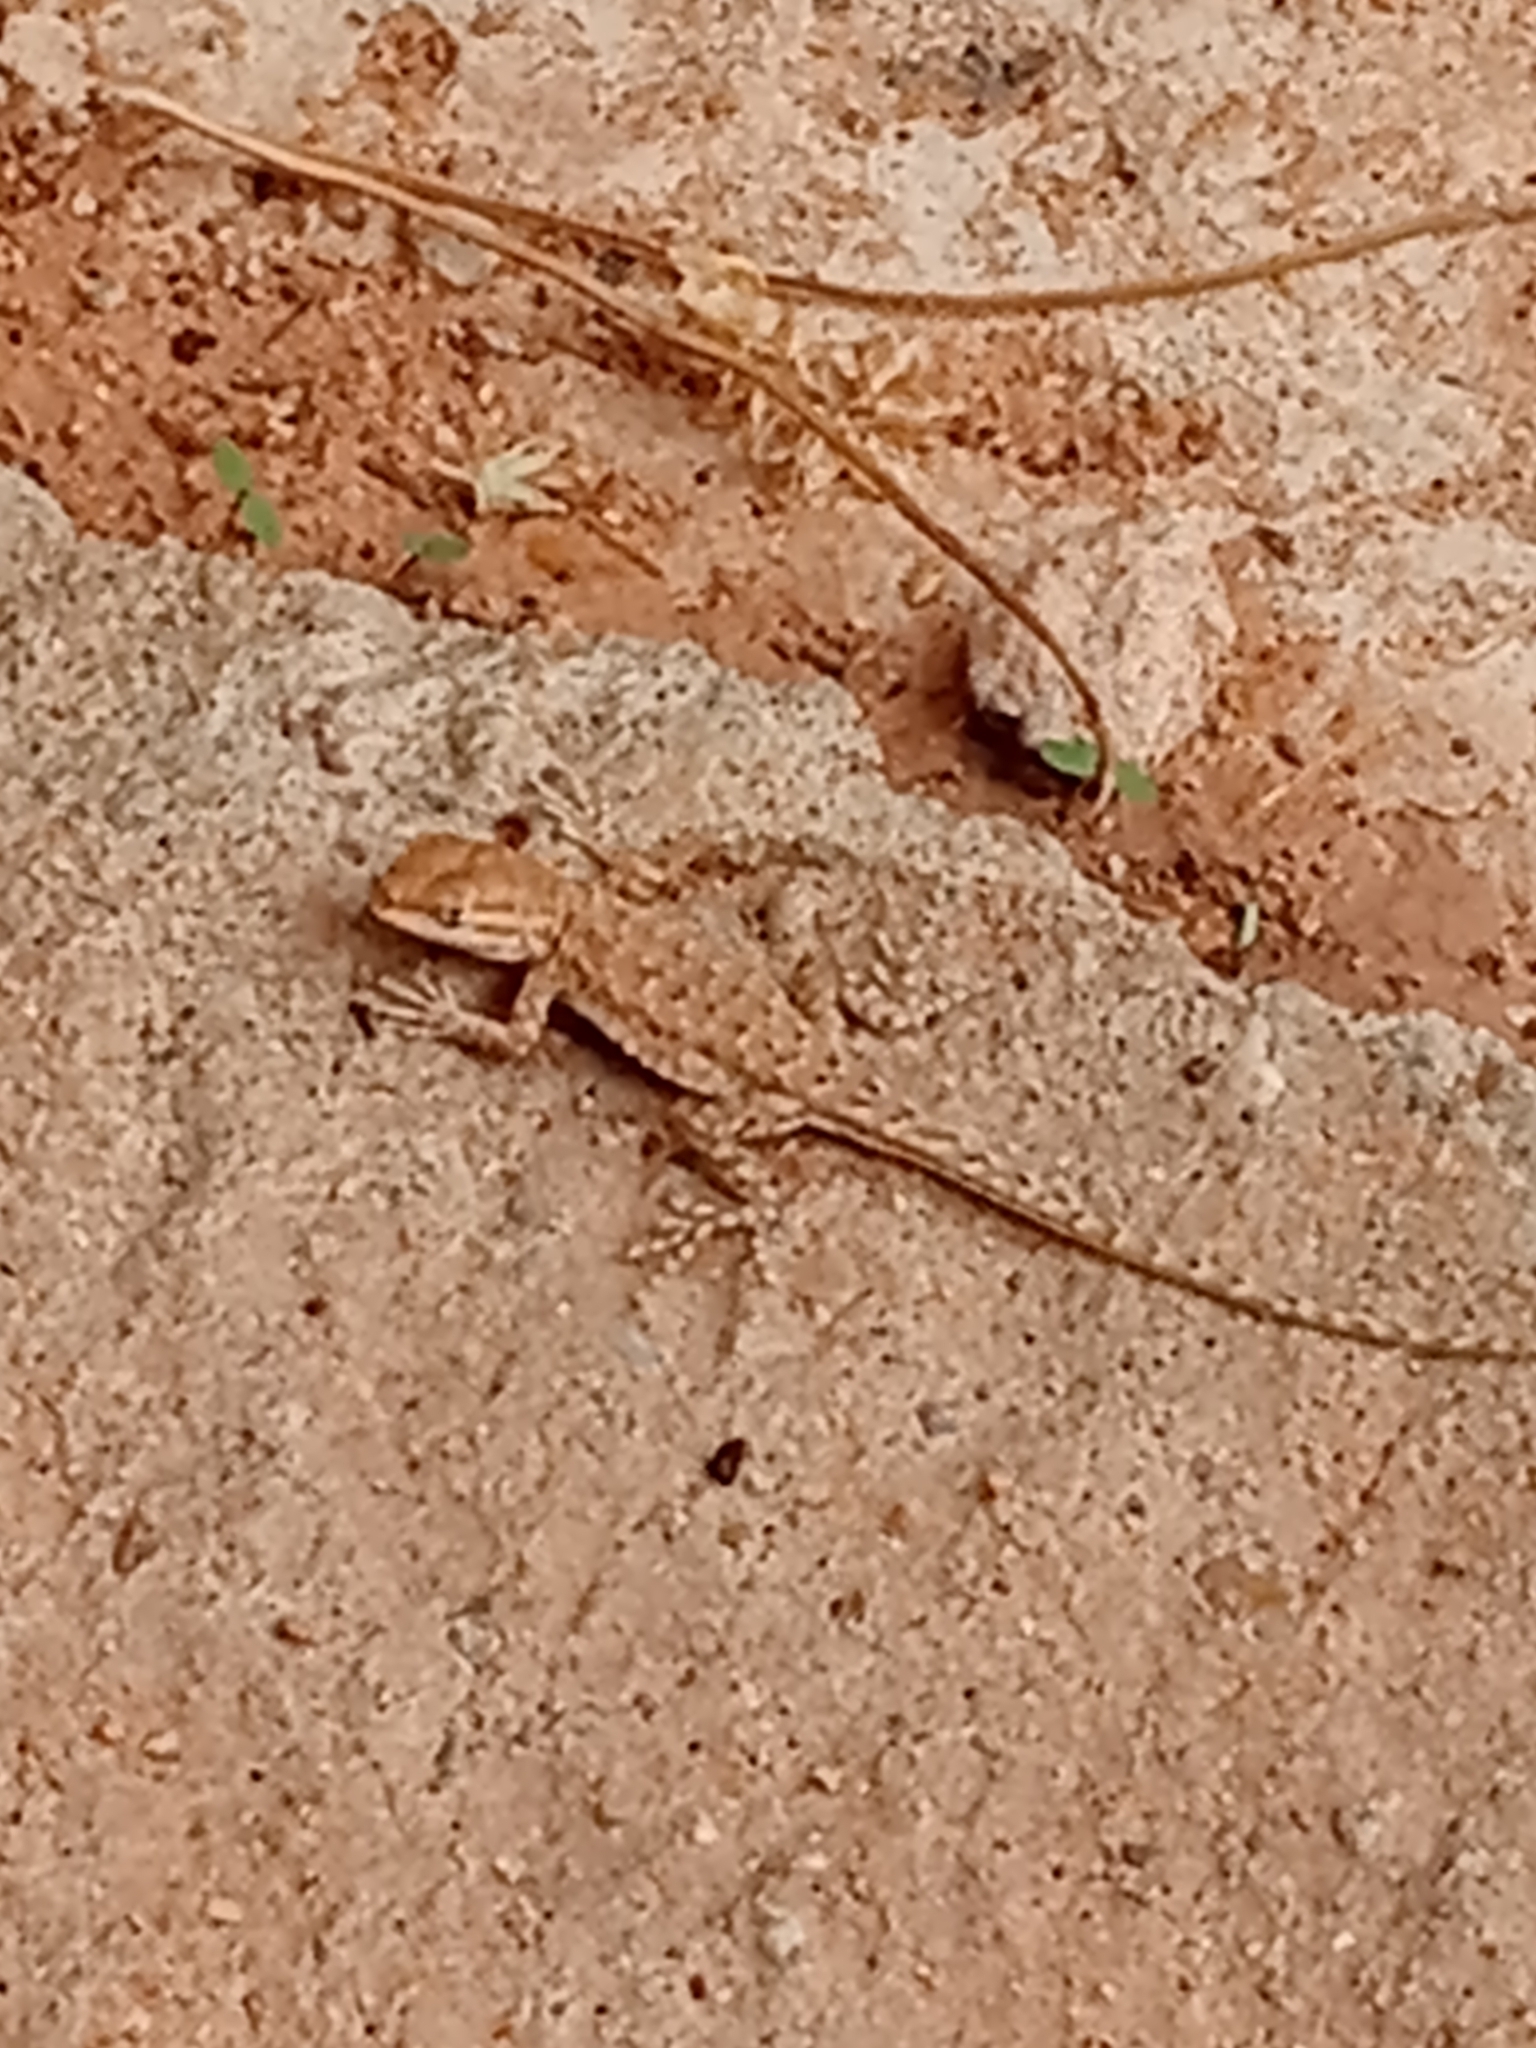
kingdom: Animalia
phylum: Chordata
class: Squamata
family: Phrynosomatidae
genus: Uta
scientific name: Uta stansburiana
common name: Side-blotched lizard
